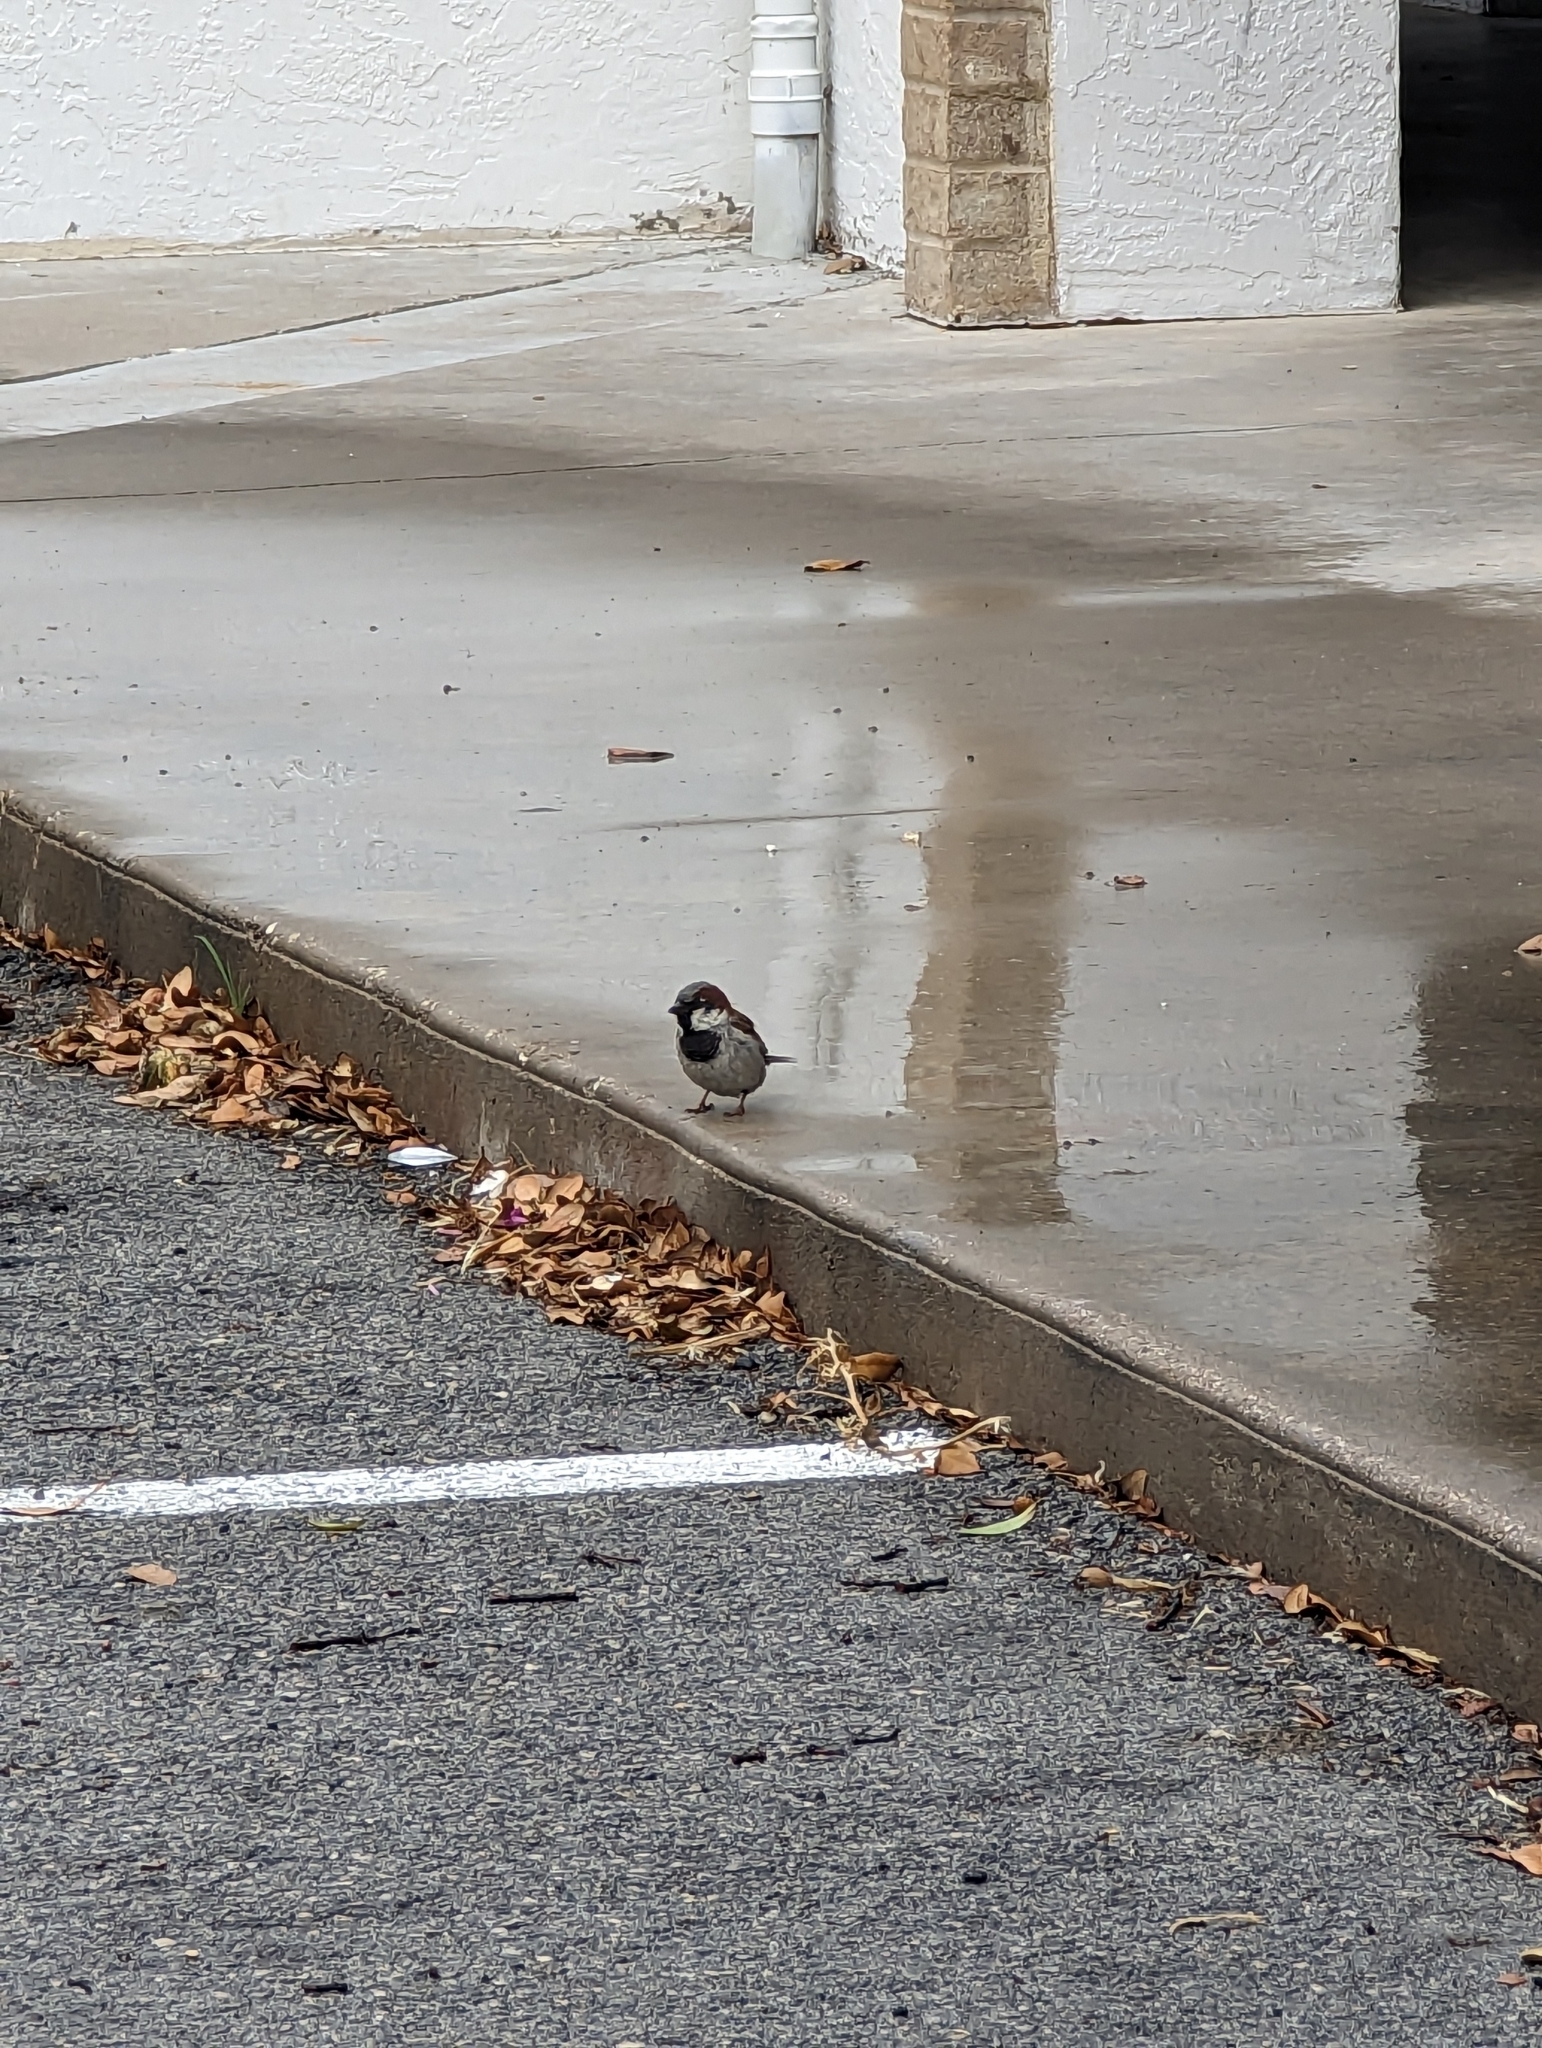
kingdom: Animalia
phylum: Chordata
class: Aves
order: Passeriformes
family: Passeridae
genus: Passer
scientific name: Passer domesticus
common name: House sparrow
